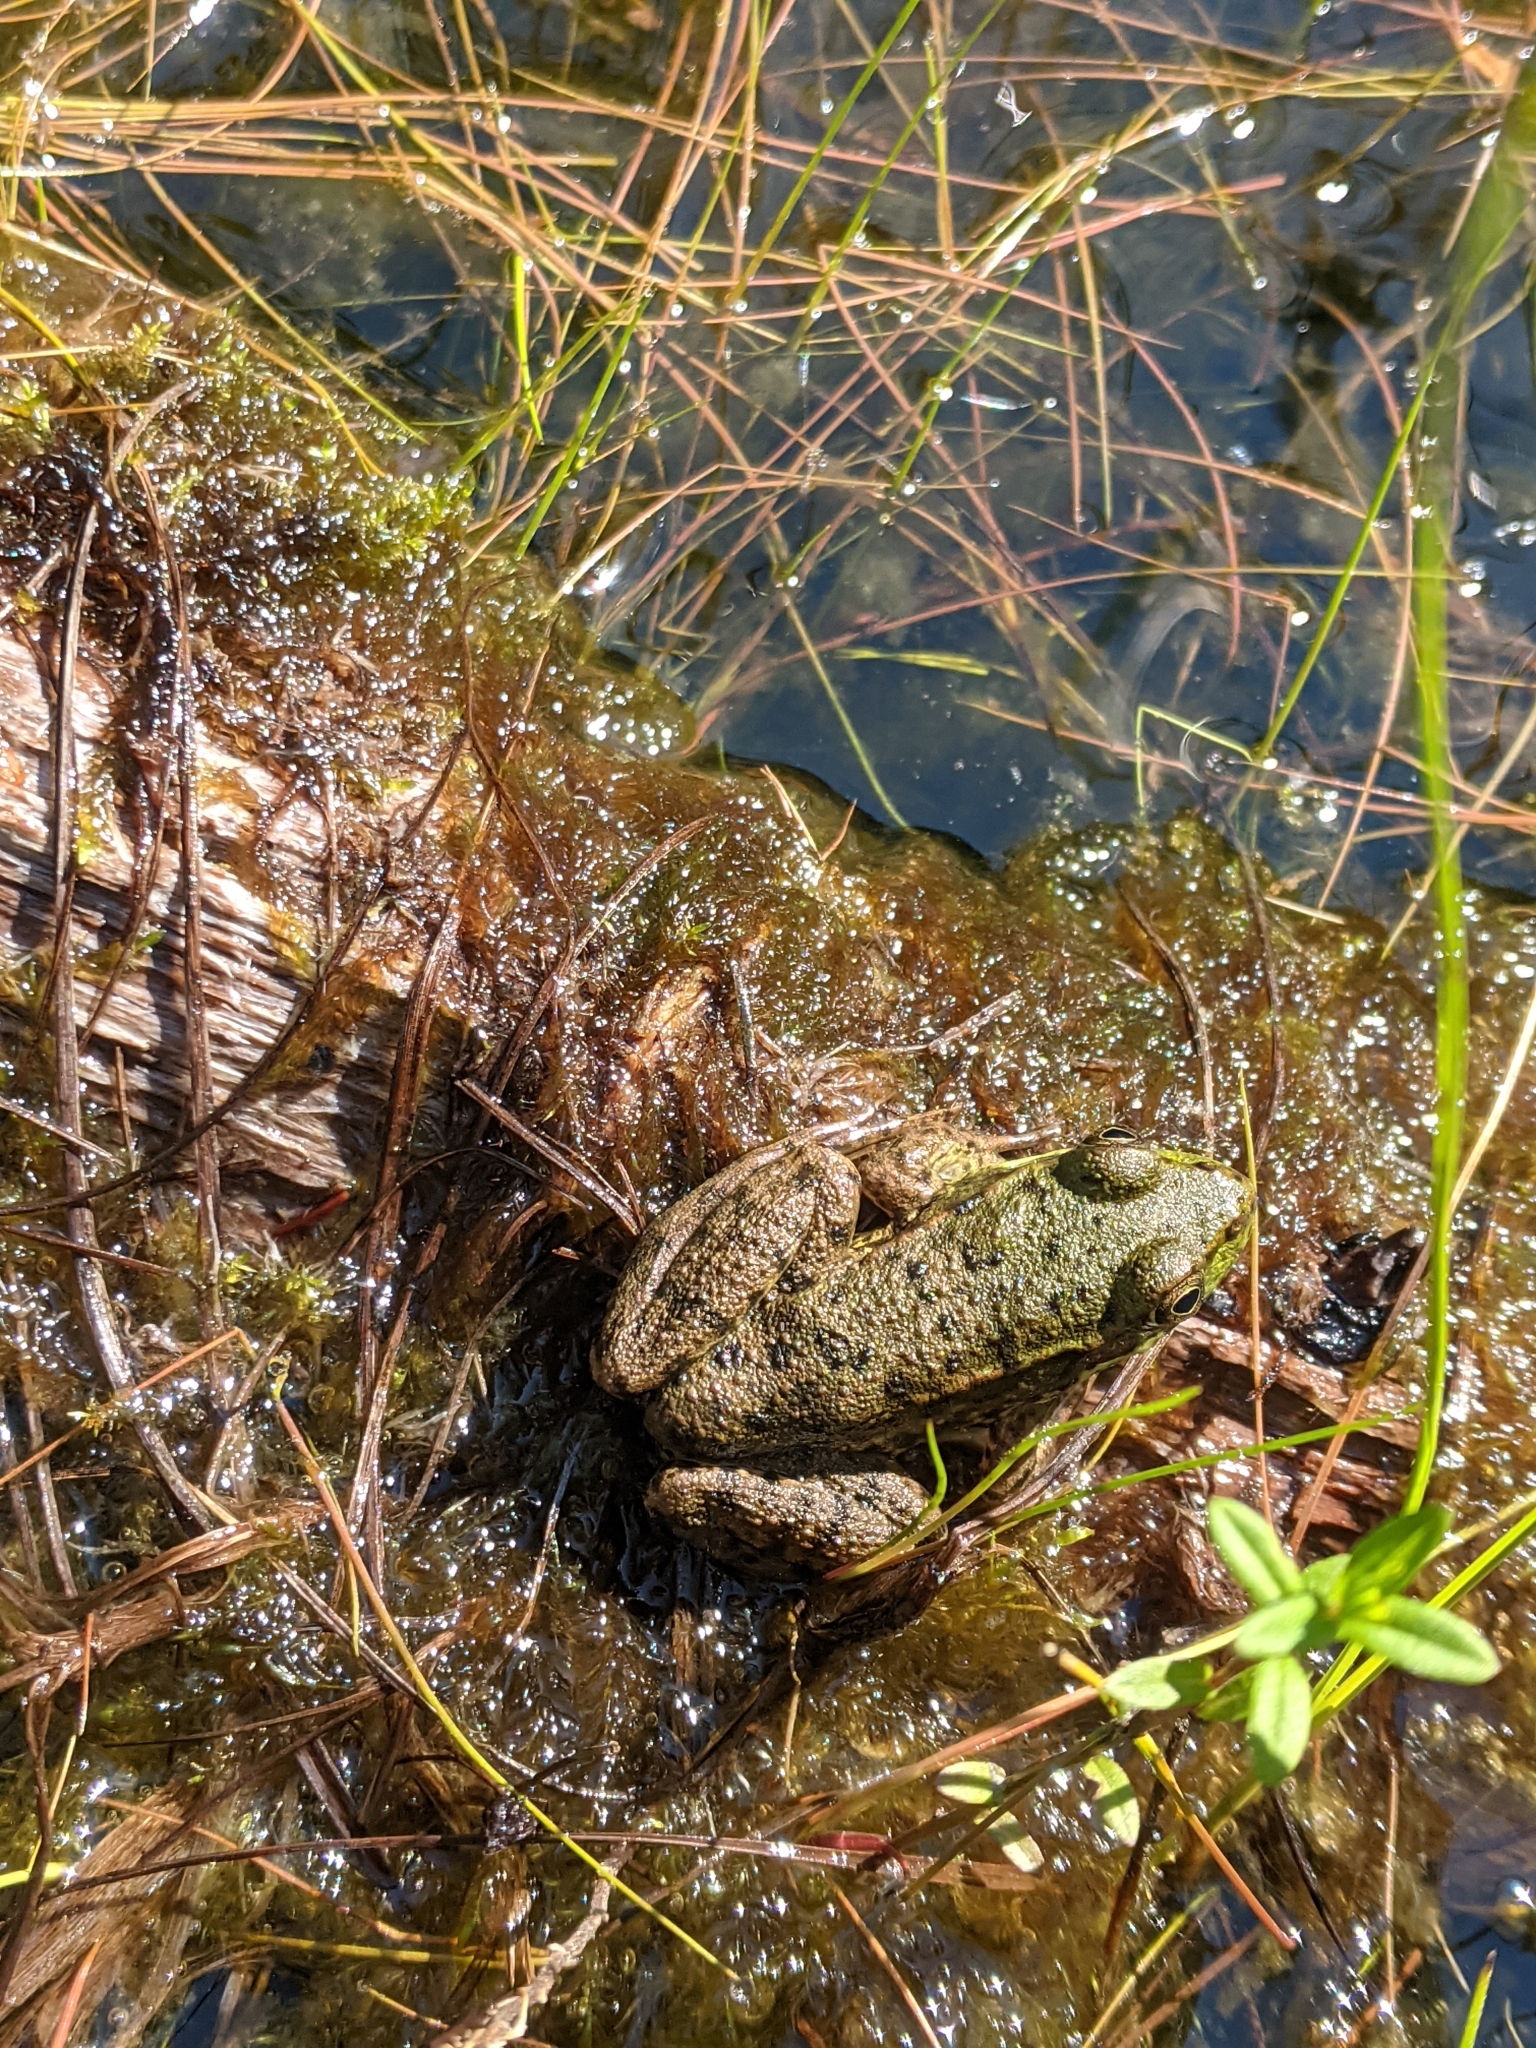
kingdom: Animalia
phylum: Chordata
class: Amphibia
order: Anura
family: Ranidae
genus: Lithobates
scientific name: Lithobates clamitans
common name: Green frog
